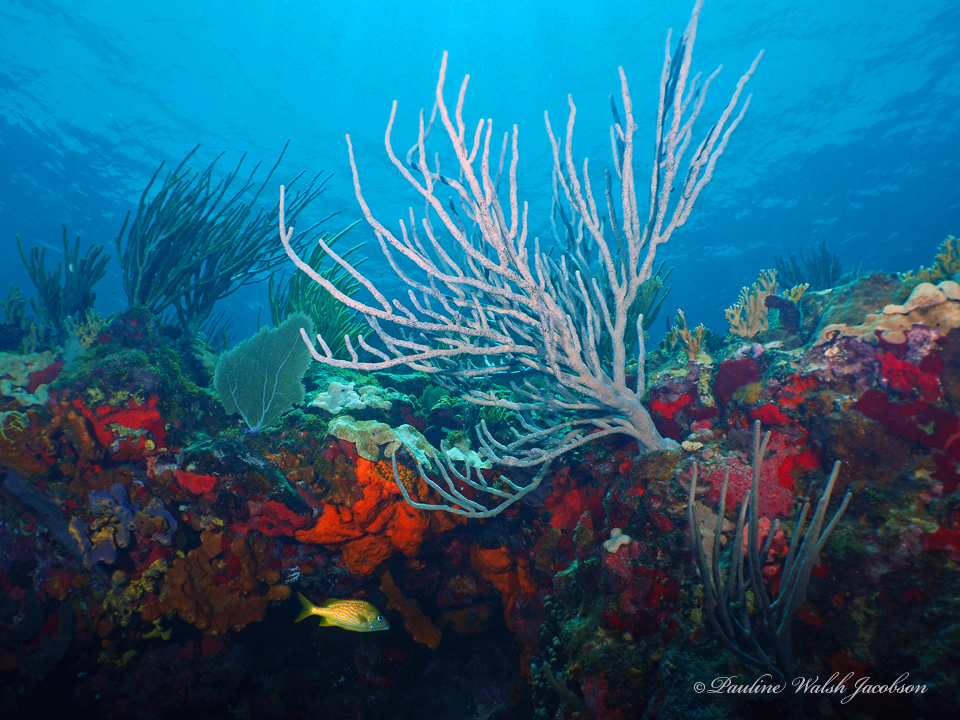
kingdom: Animalia
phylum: Chordata
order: Perciformes
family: Haemulidae
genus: Haemulon
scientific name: Haemulon flavolineatum
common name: French grunt
